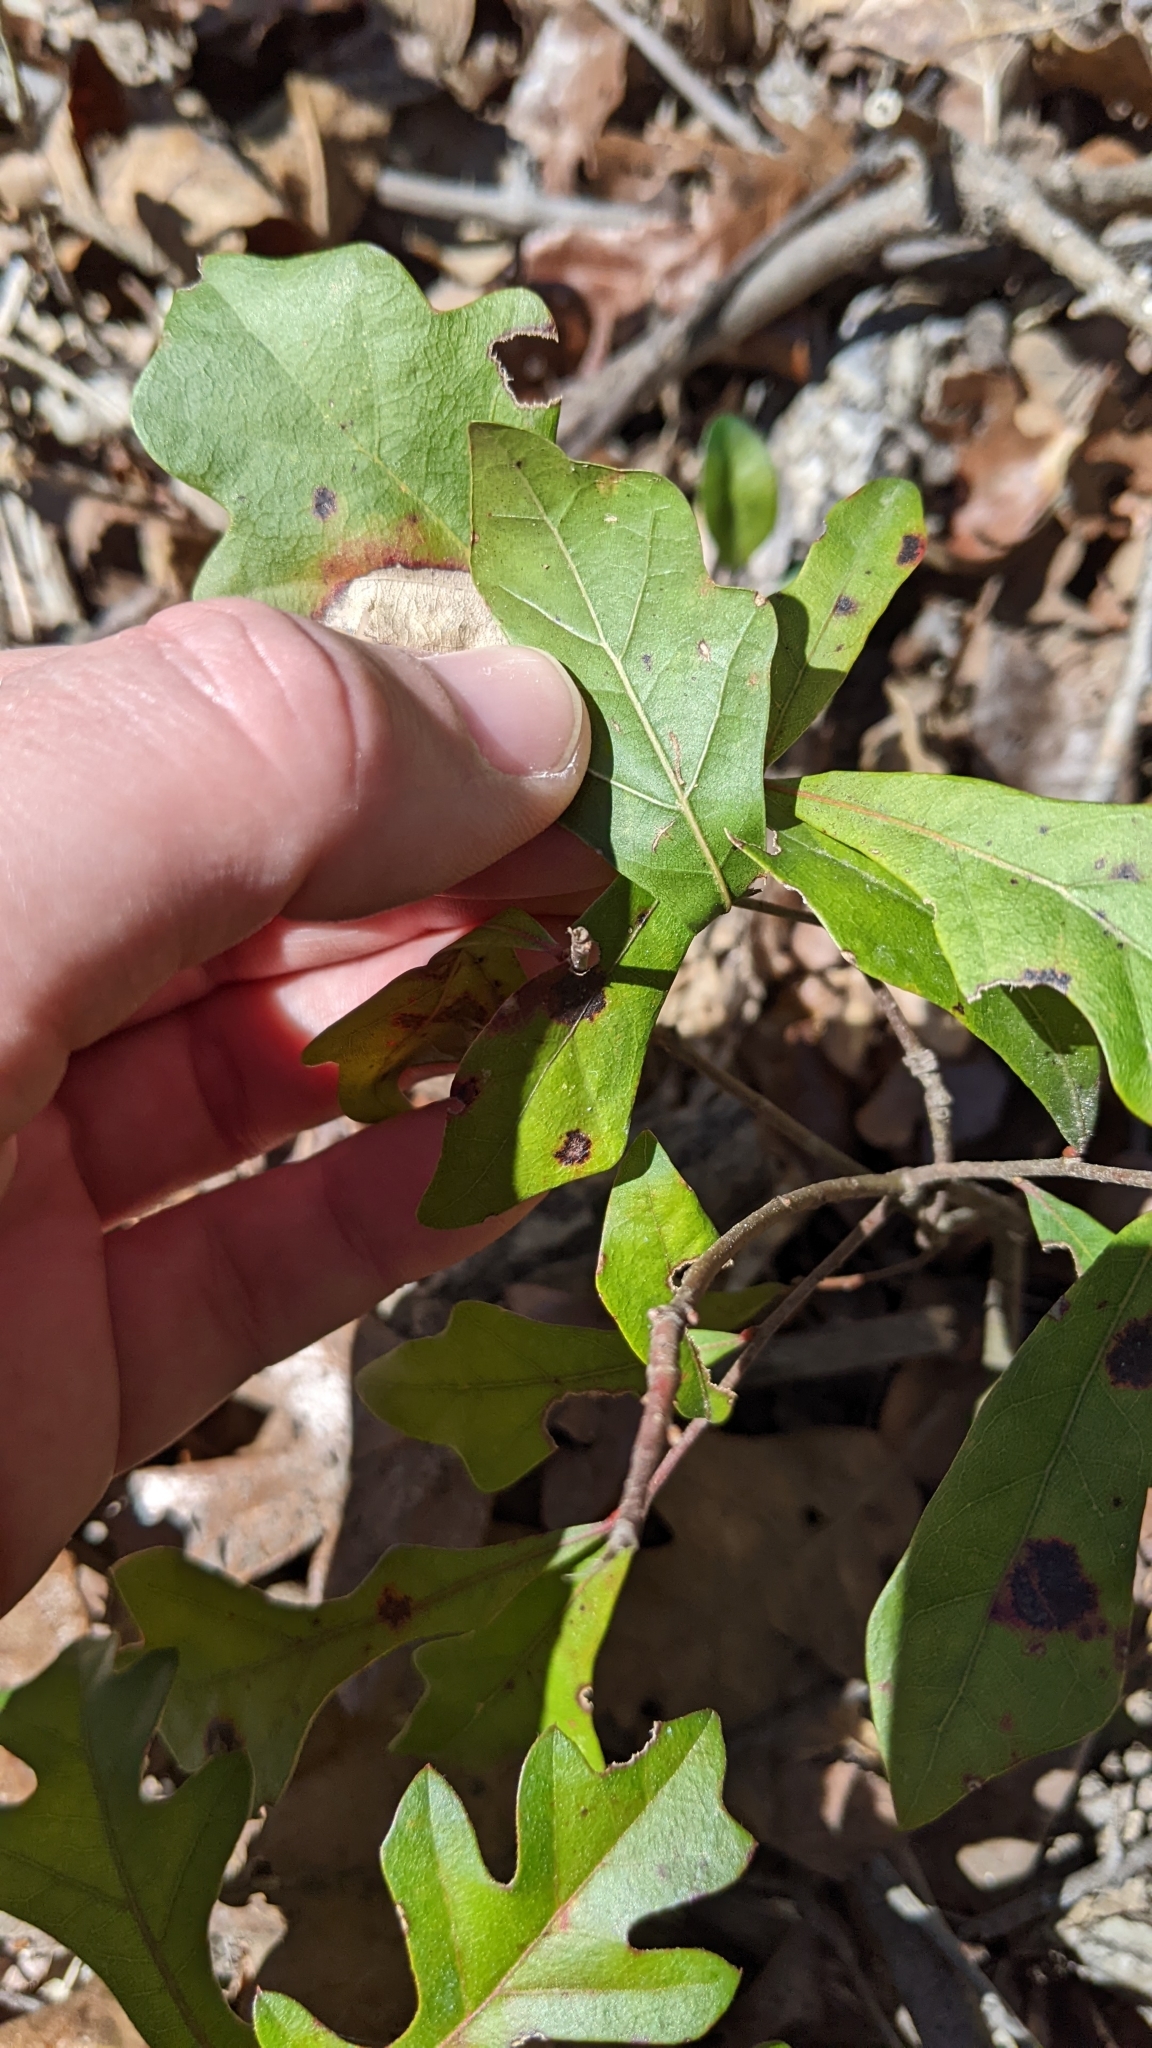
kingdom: Plantae
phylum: Tracheophyta
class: Magnoliopsida
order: Fagales
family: Fagaceae
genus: Quercus
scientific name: Quercus nigra
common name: Water oak
